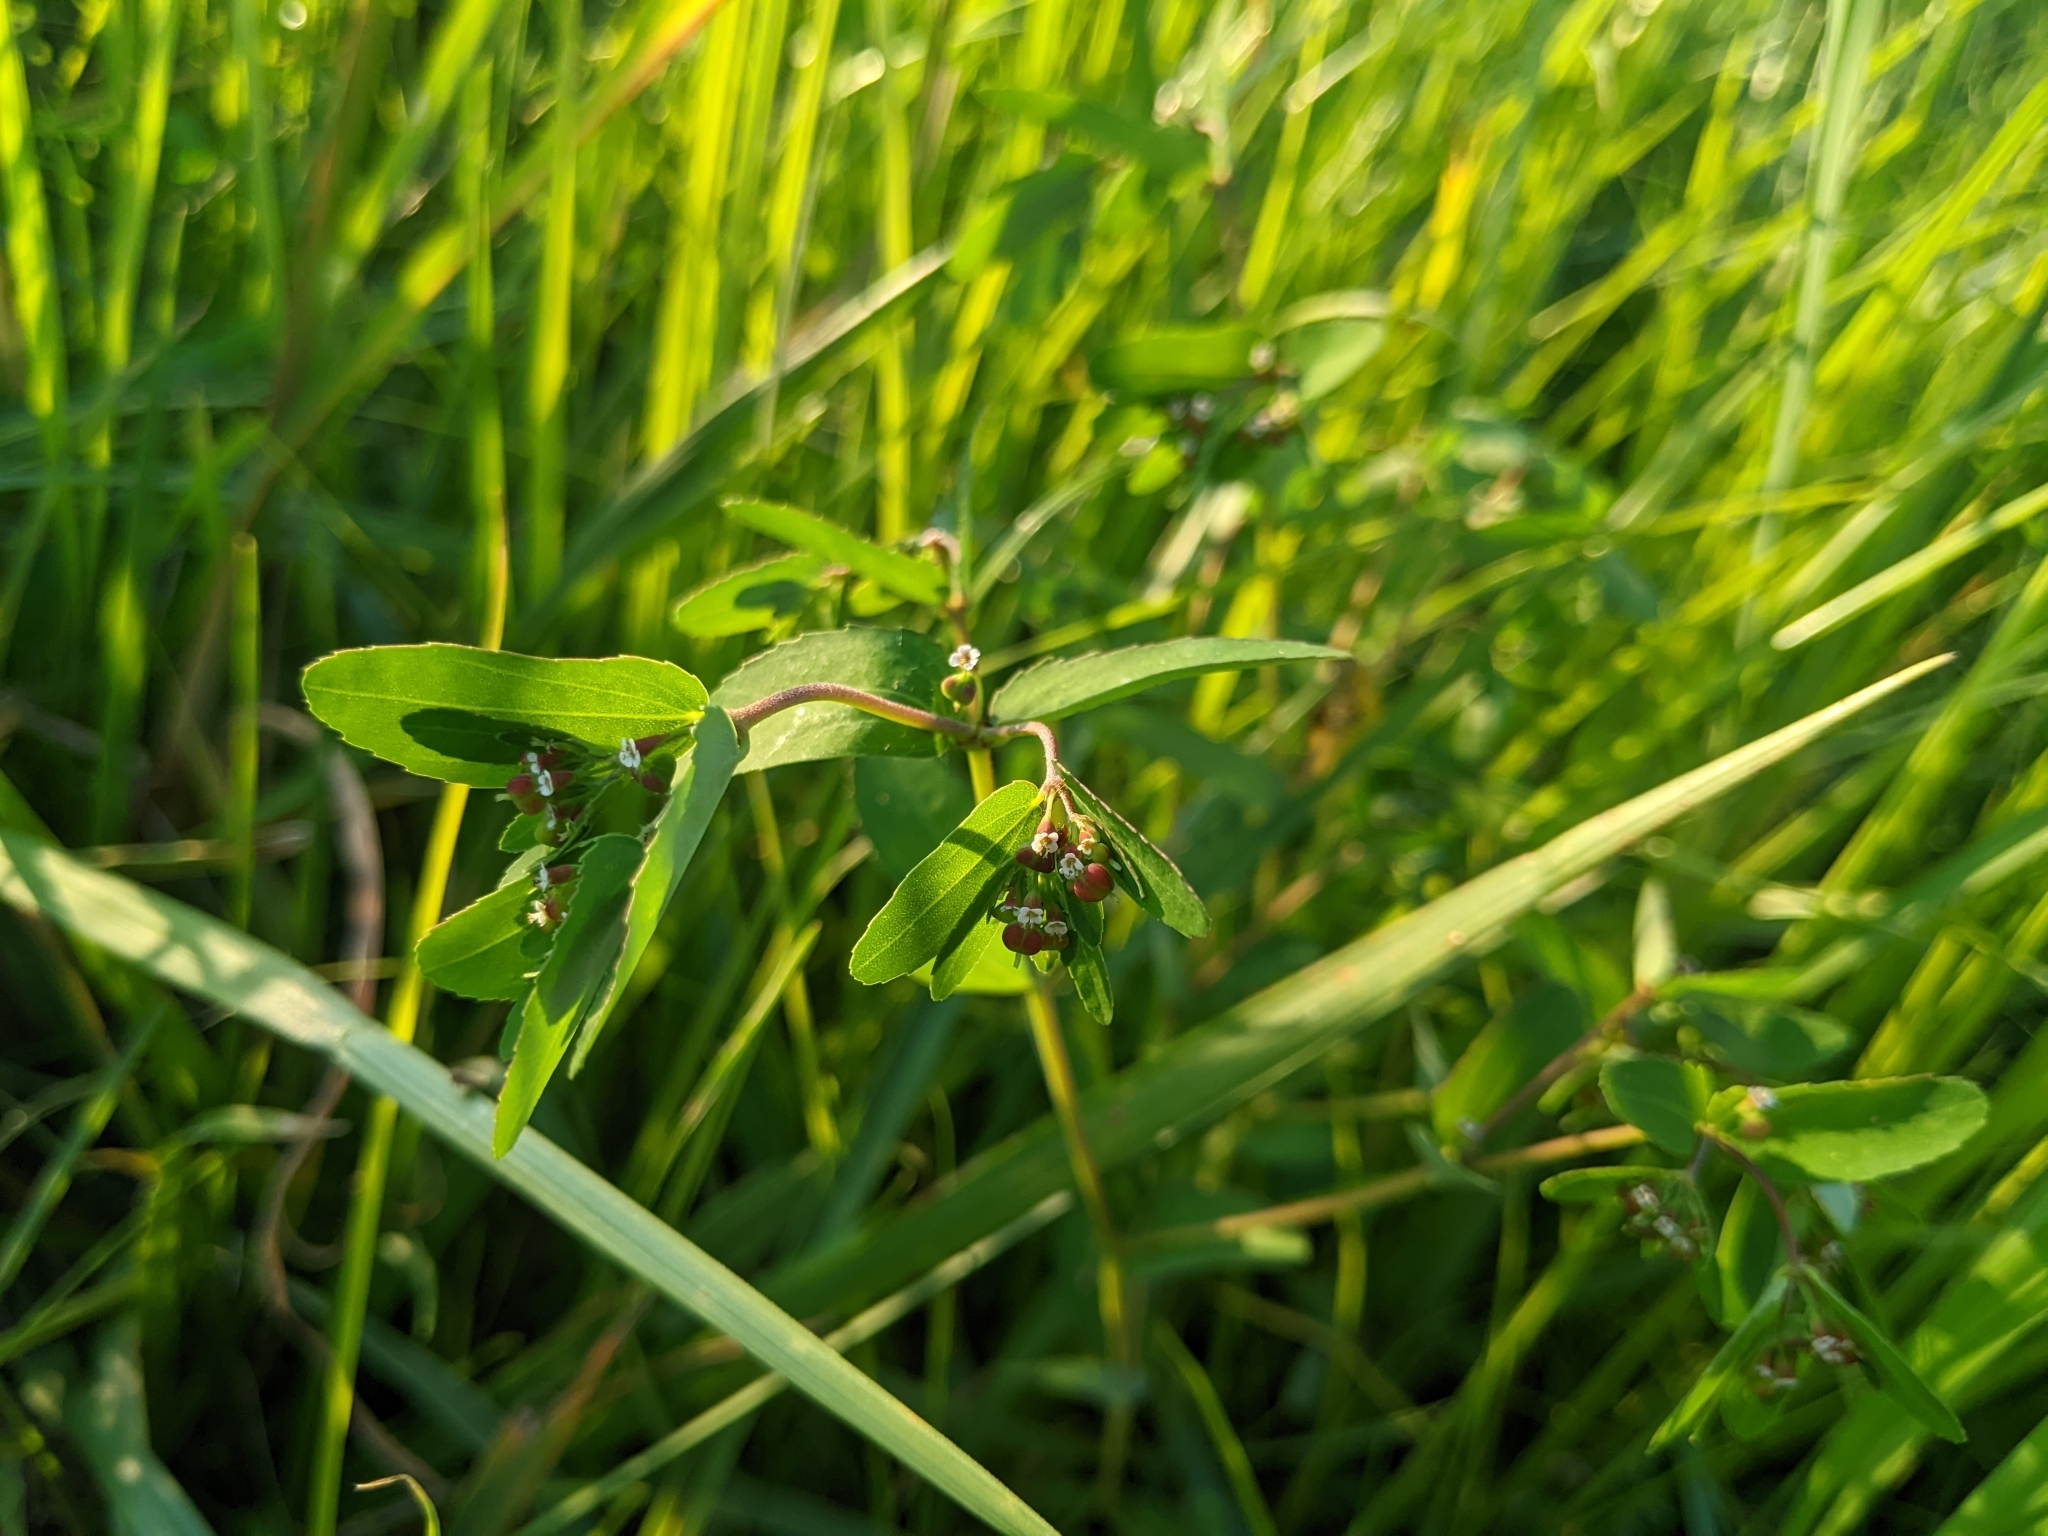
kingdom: Plantae
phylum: Tracheophyta
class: Magnoliopsida
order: Malpighiales
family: Euphorbiaceae
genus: Euphorbia
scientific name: Euphorbia nutans
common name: Eyebane
